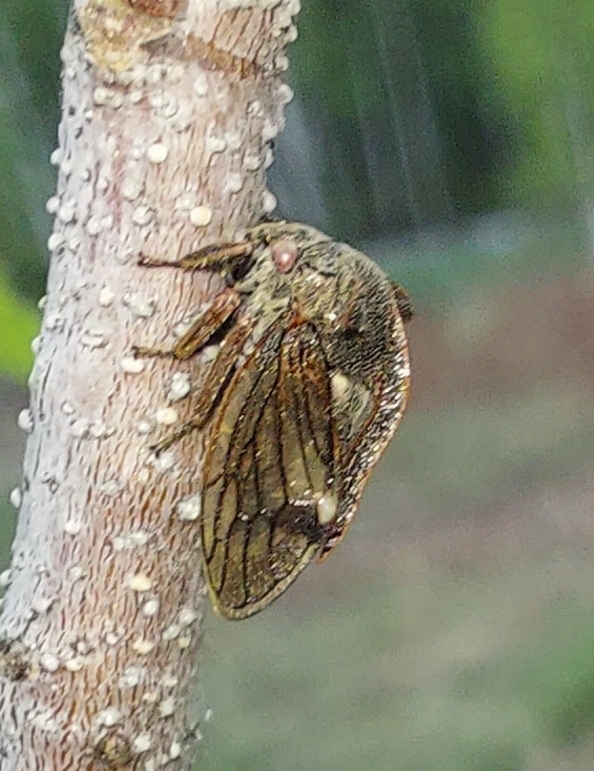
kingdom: Animalia
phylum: Arthropoda
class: Insecta
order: Hemiptera
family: Membracidae
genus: Centrotus
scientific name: Centrotus cornuta
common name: Treehopper
